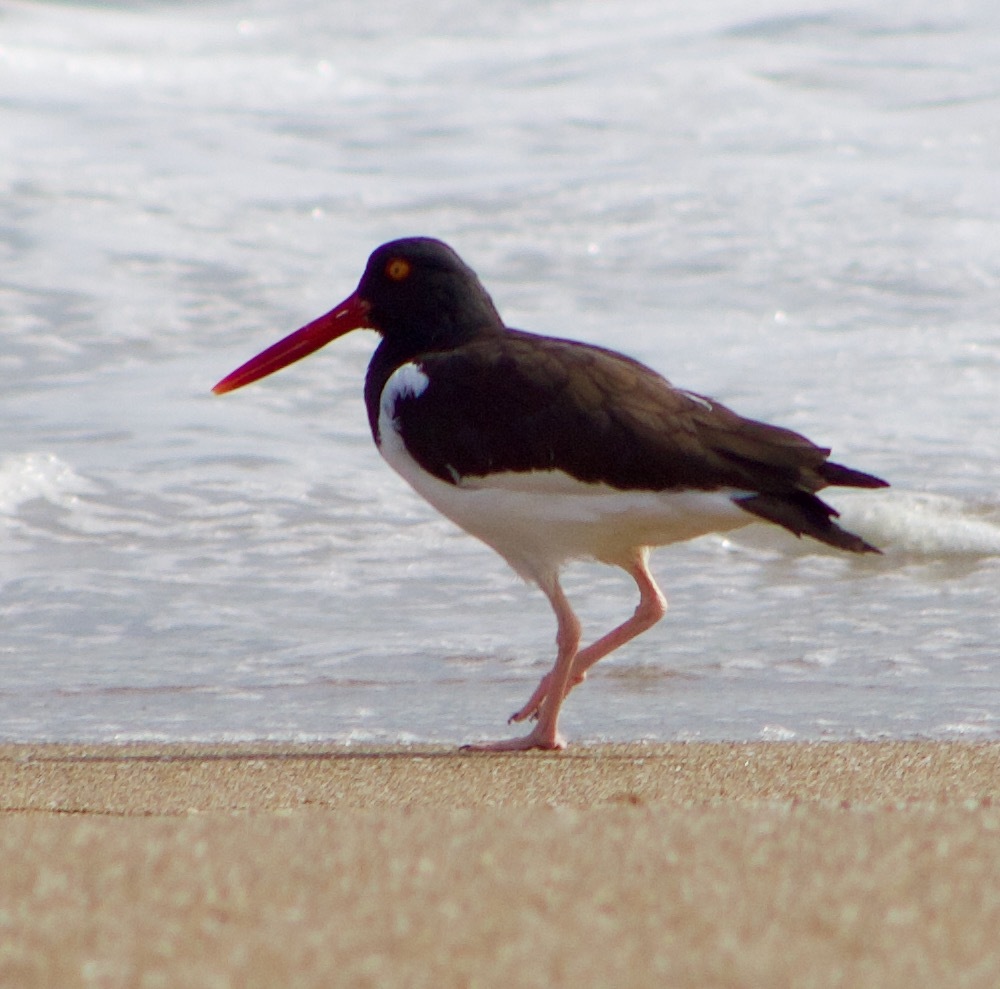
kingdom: Animalia
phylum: Chordata
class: Aves
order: Charadriiformes
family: Haematopodidae
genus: Haematopus
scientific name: Haematopus palliatus
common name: American oystercatcher
